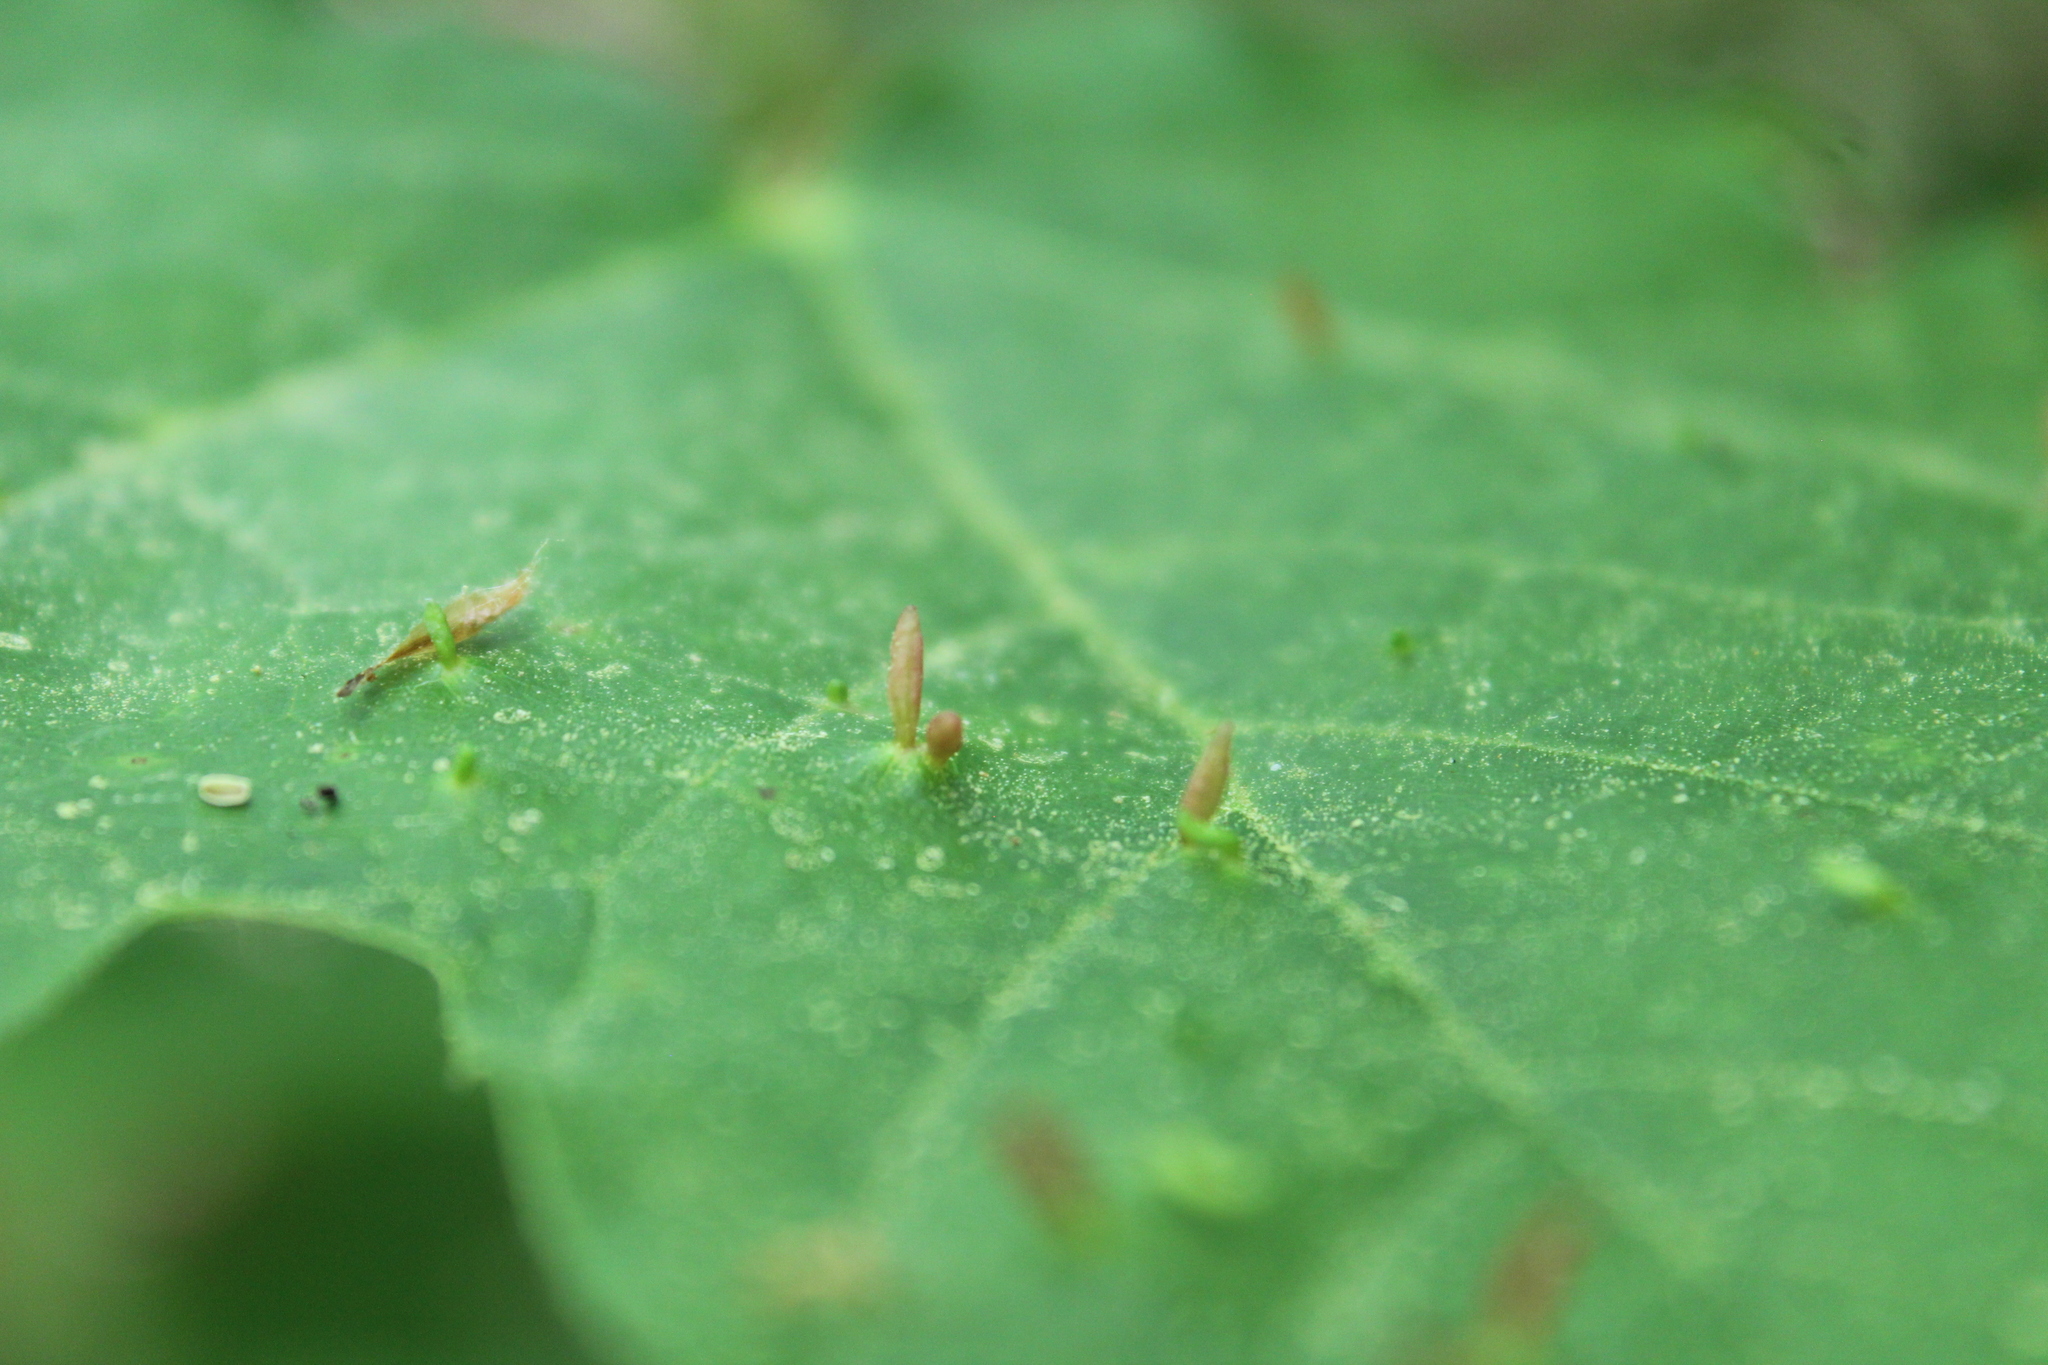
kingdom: Animalia
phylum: Arthropoda
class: Arachnida
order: Trombidiformes
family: Eriophyidae
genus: Vasates
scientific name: Vasates aceriscrumena
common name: Maple spindle gall mite
